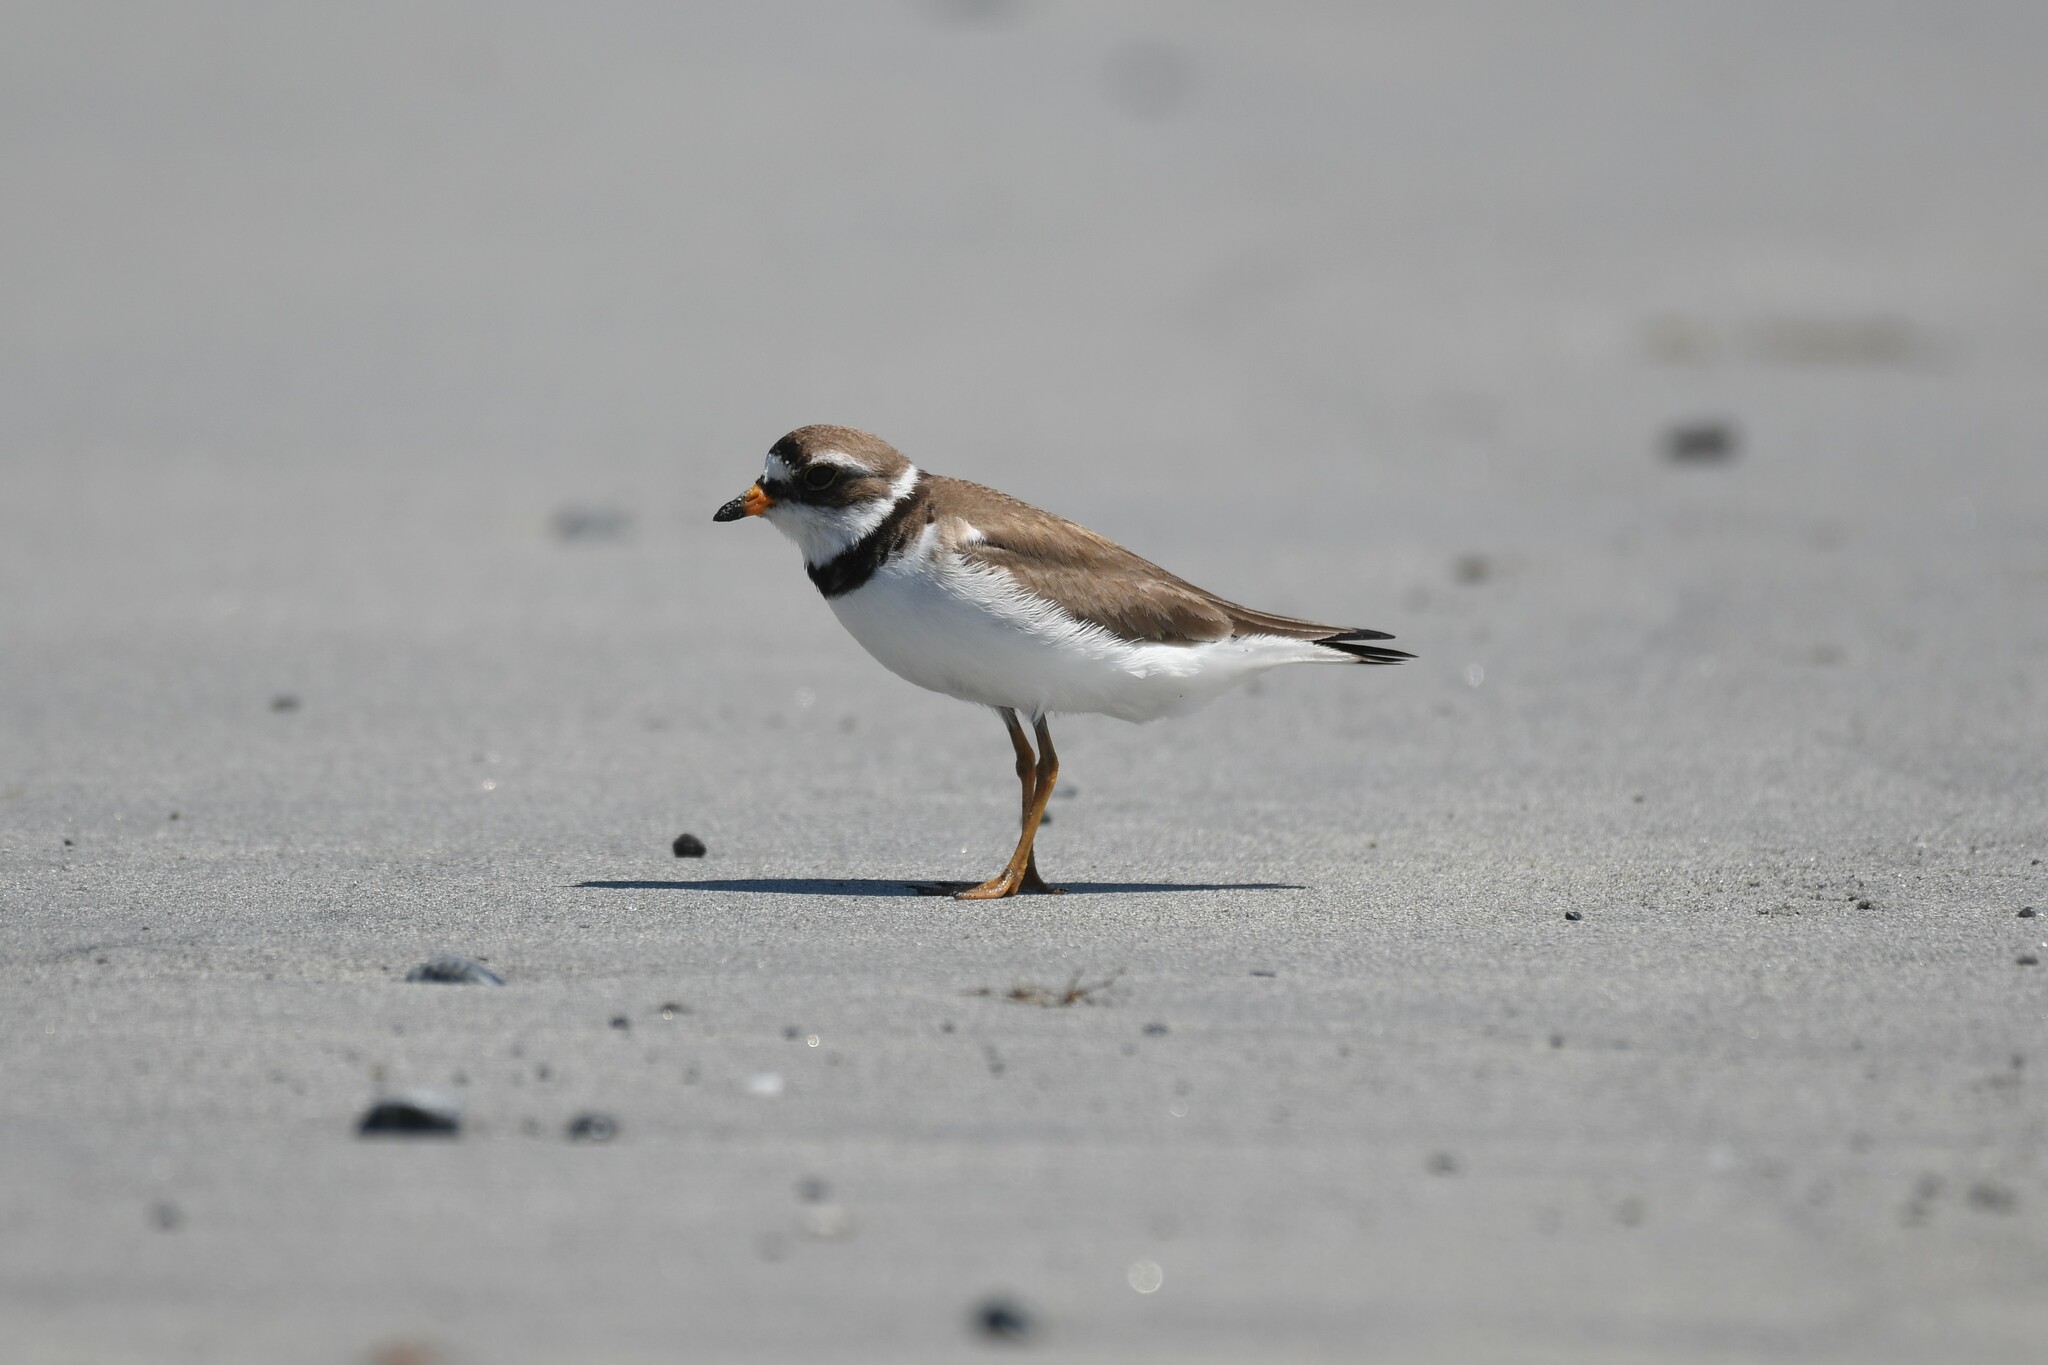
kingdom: Animalia
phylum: Chordata
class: Aves
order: Charadriiformes
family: Charadriidae
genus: Charadrius
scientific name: Charadrius semipalmatus
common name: Semipalmated plover
